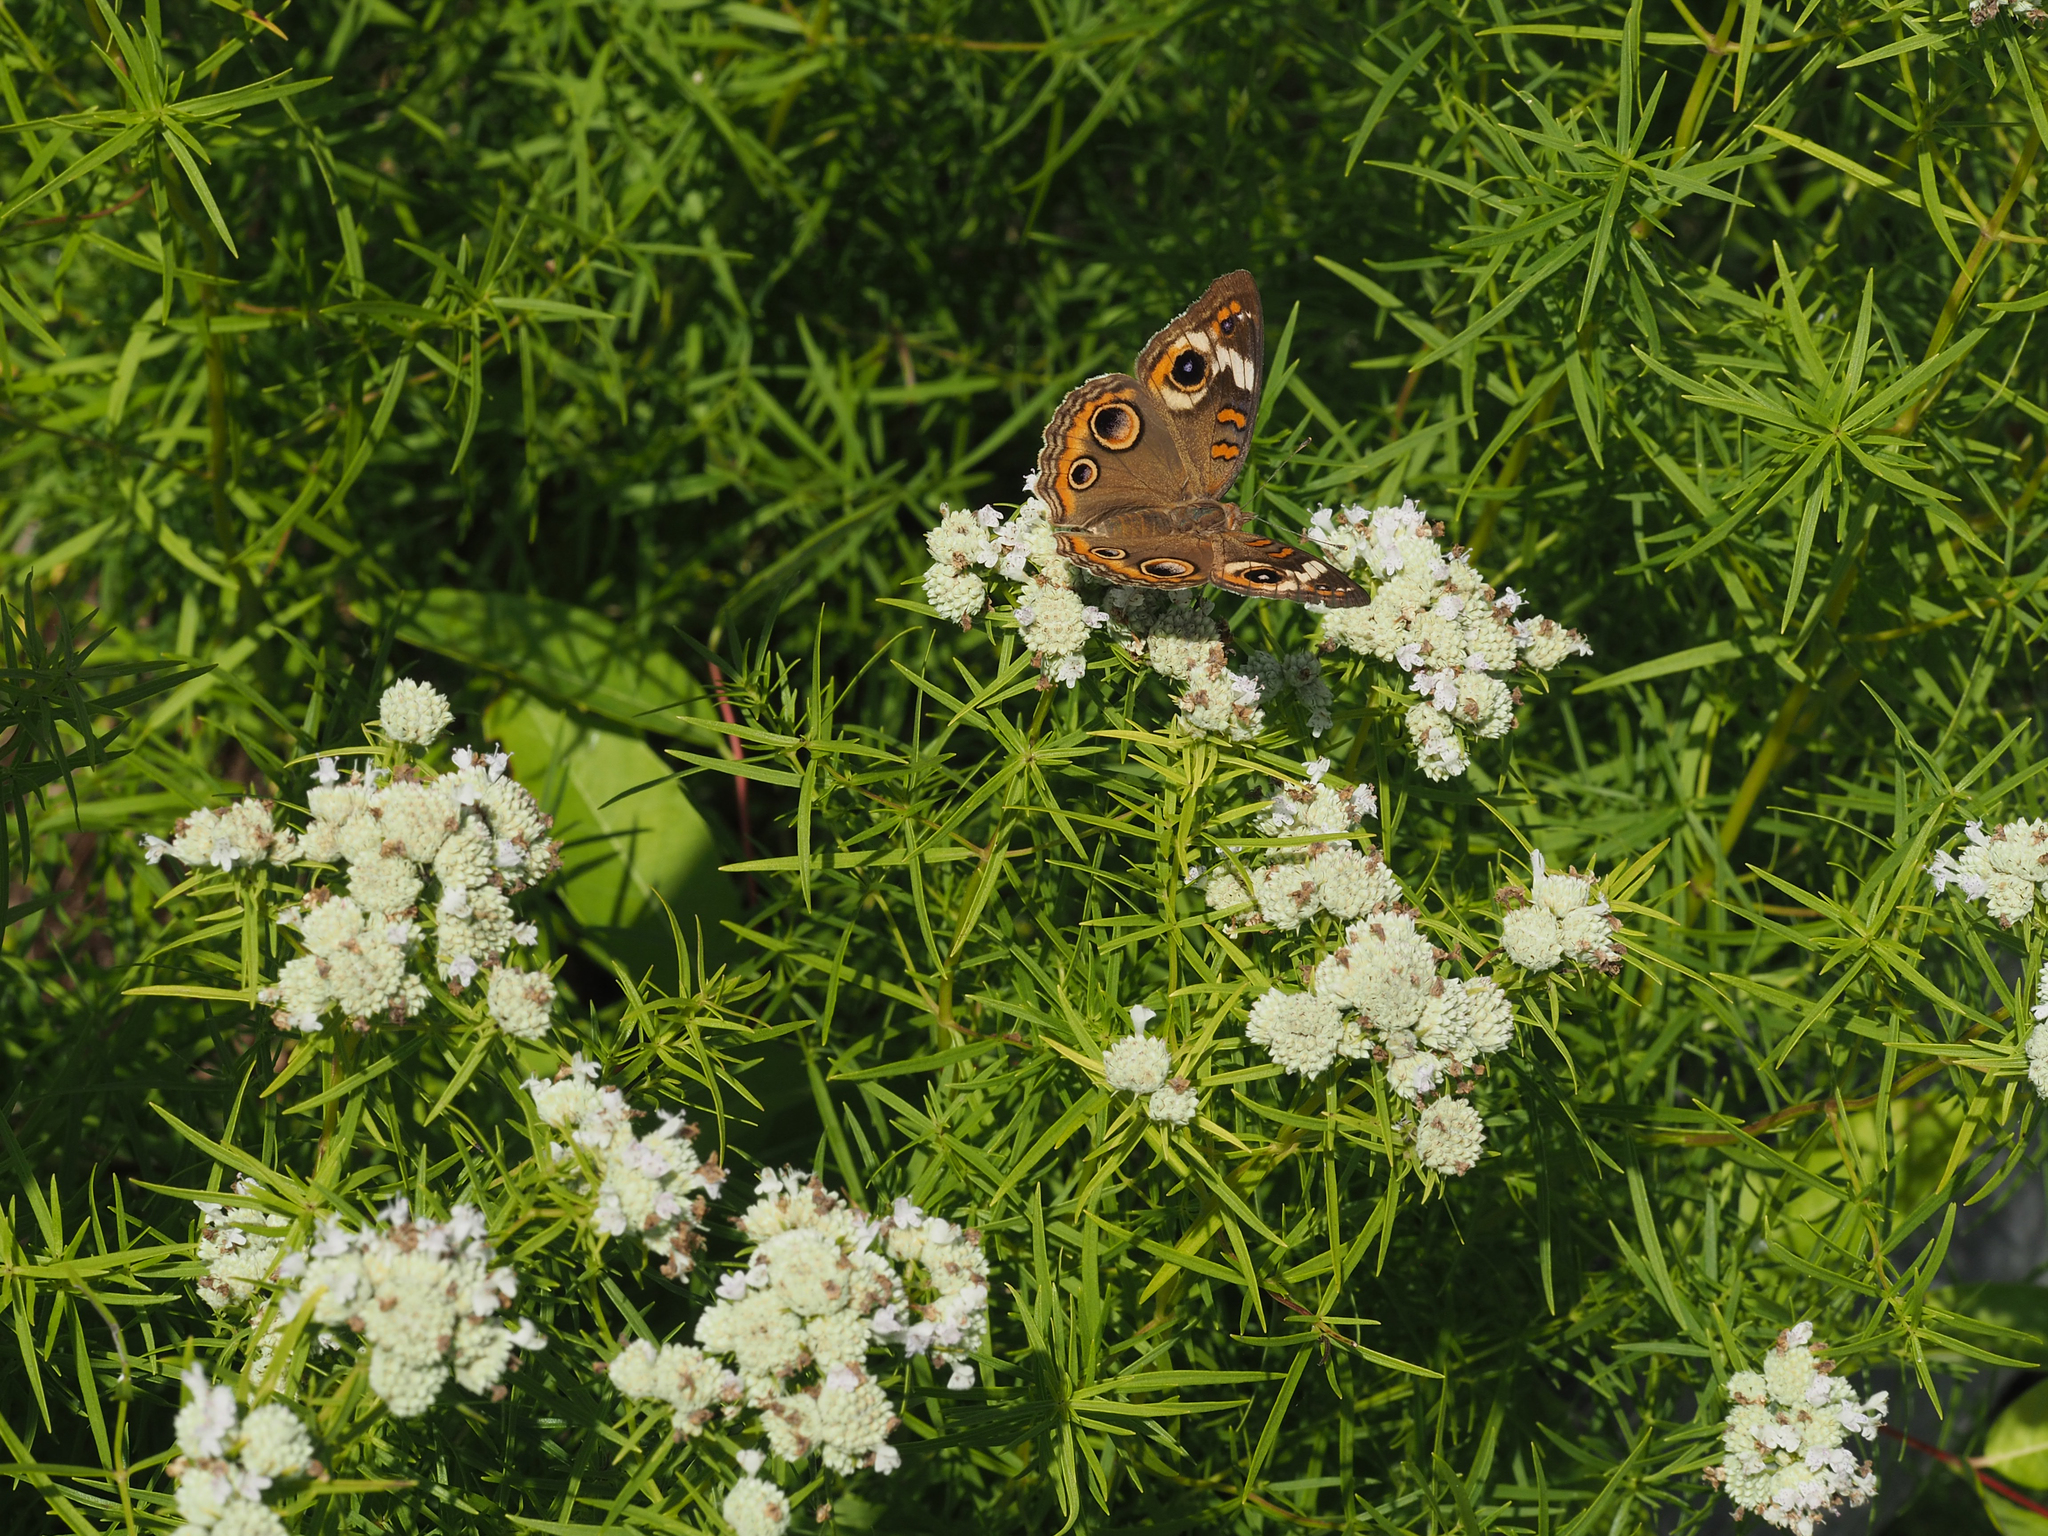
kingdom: Animalia
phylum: Arthropoda
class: Insecta
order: Lepidoptera
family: Nymphalidae
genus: Junonia
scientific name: Junonia coenia
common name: Common buckeye
